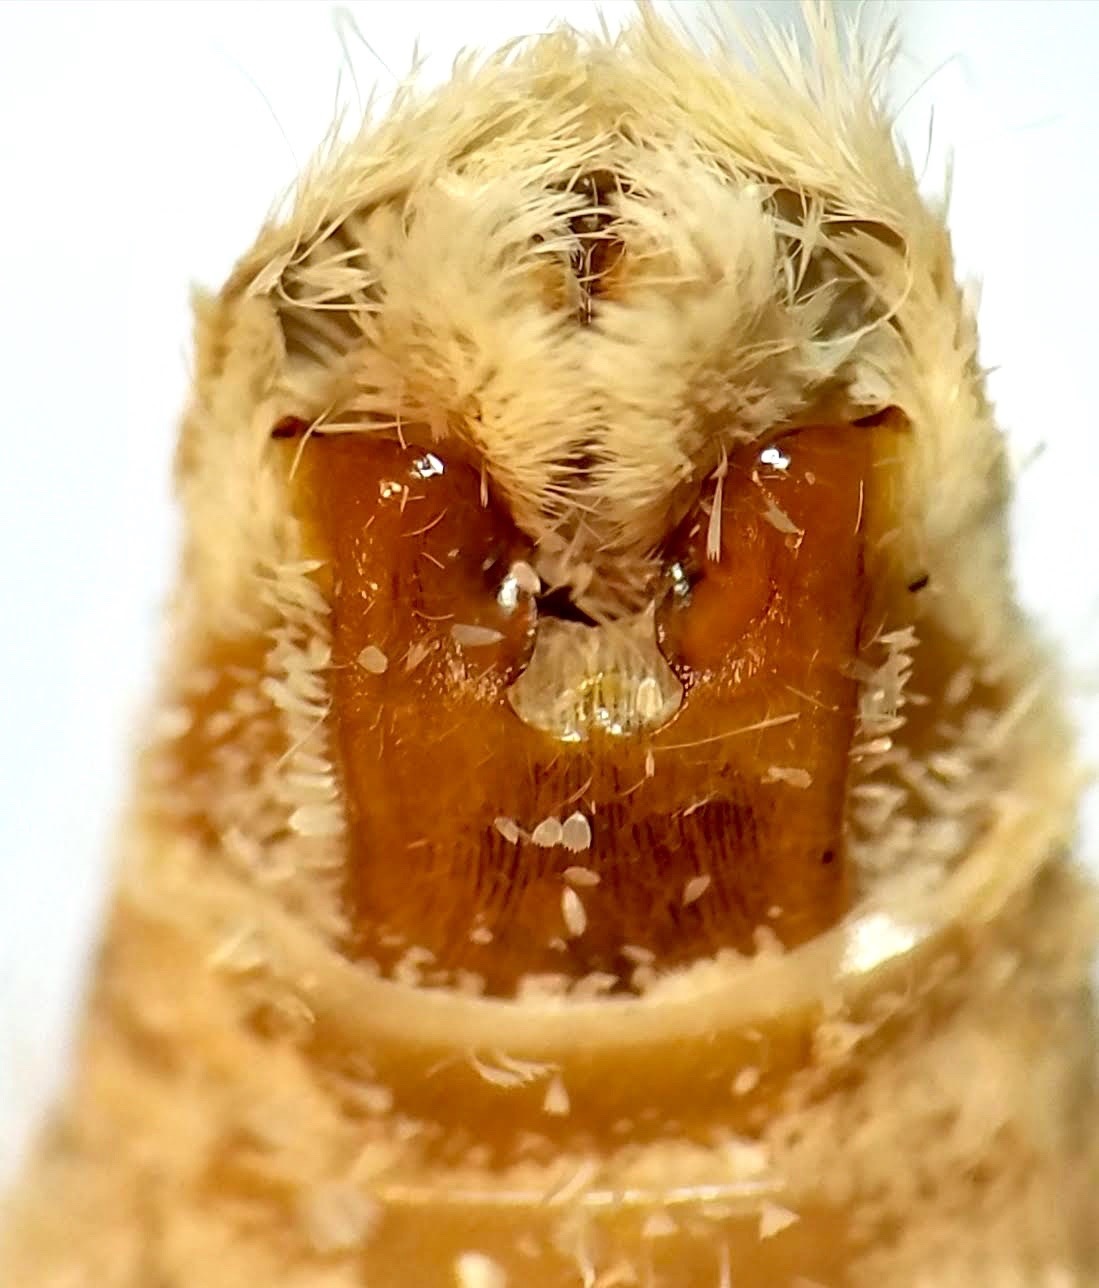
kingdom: Animalia
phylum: Arthropoda
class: Insecta
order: Lepidoptera
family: Notodontidae
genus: Symmerista
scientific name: Symmerista leucitys
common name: Orange-humped mapleworm
